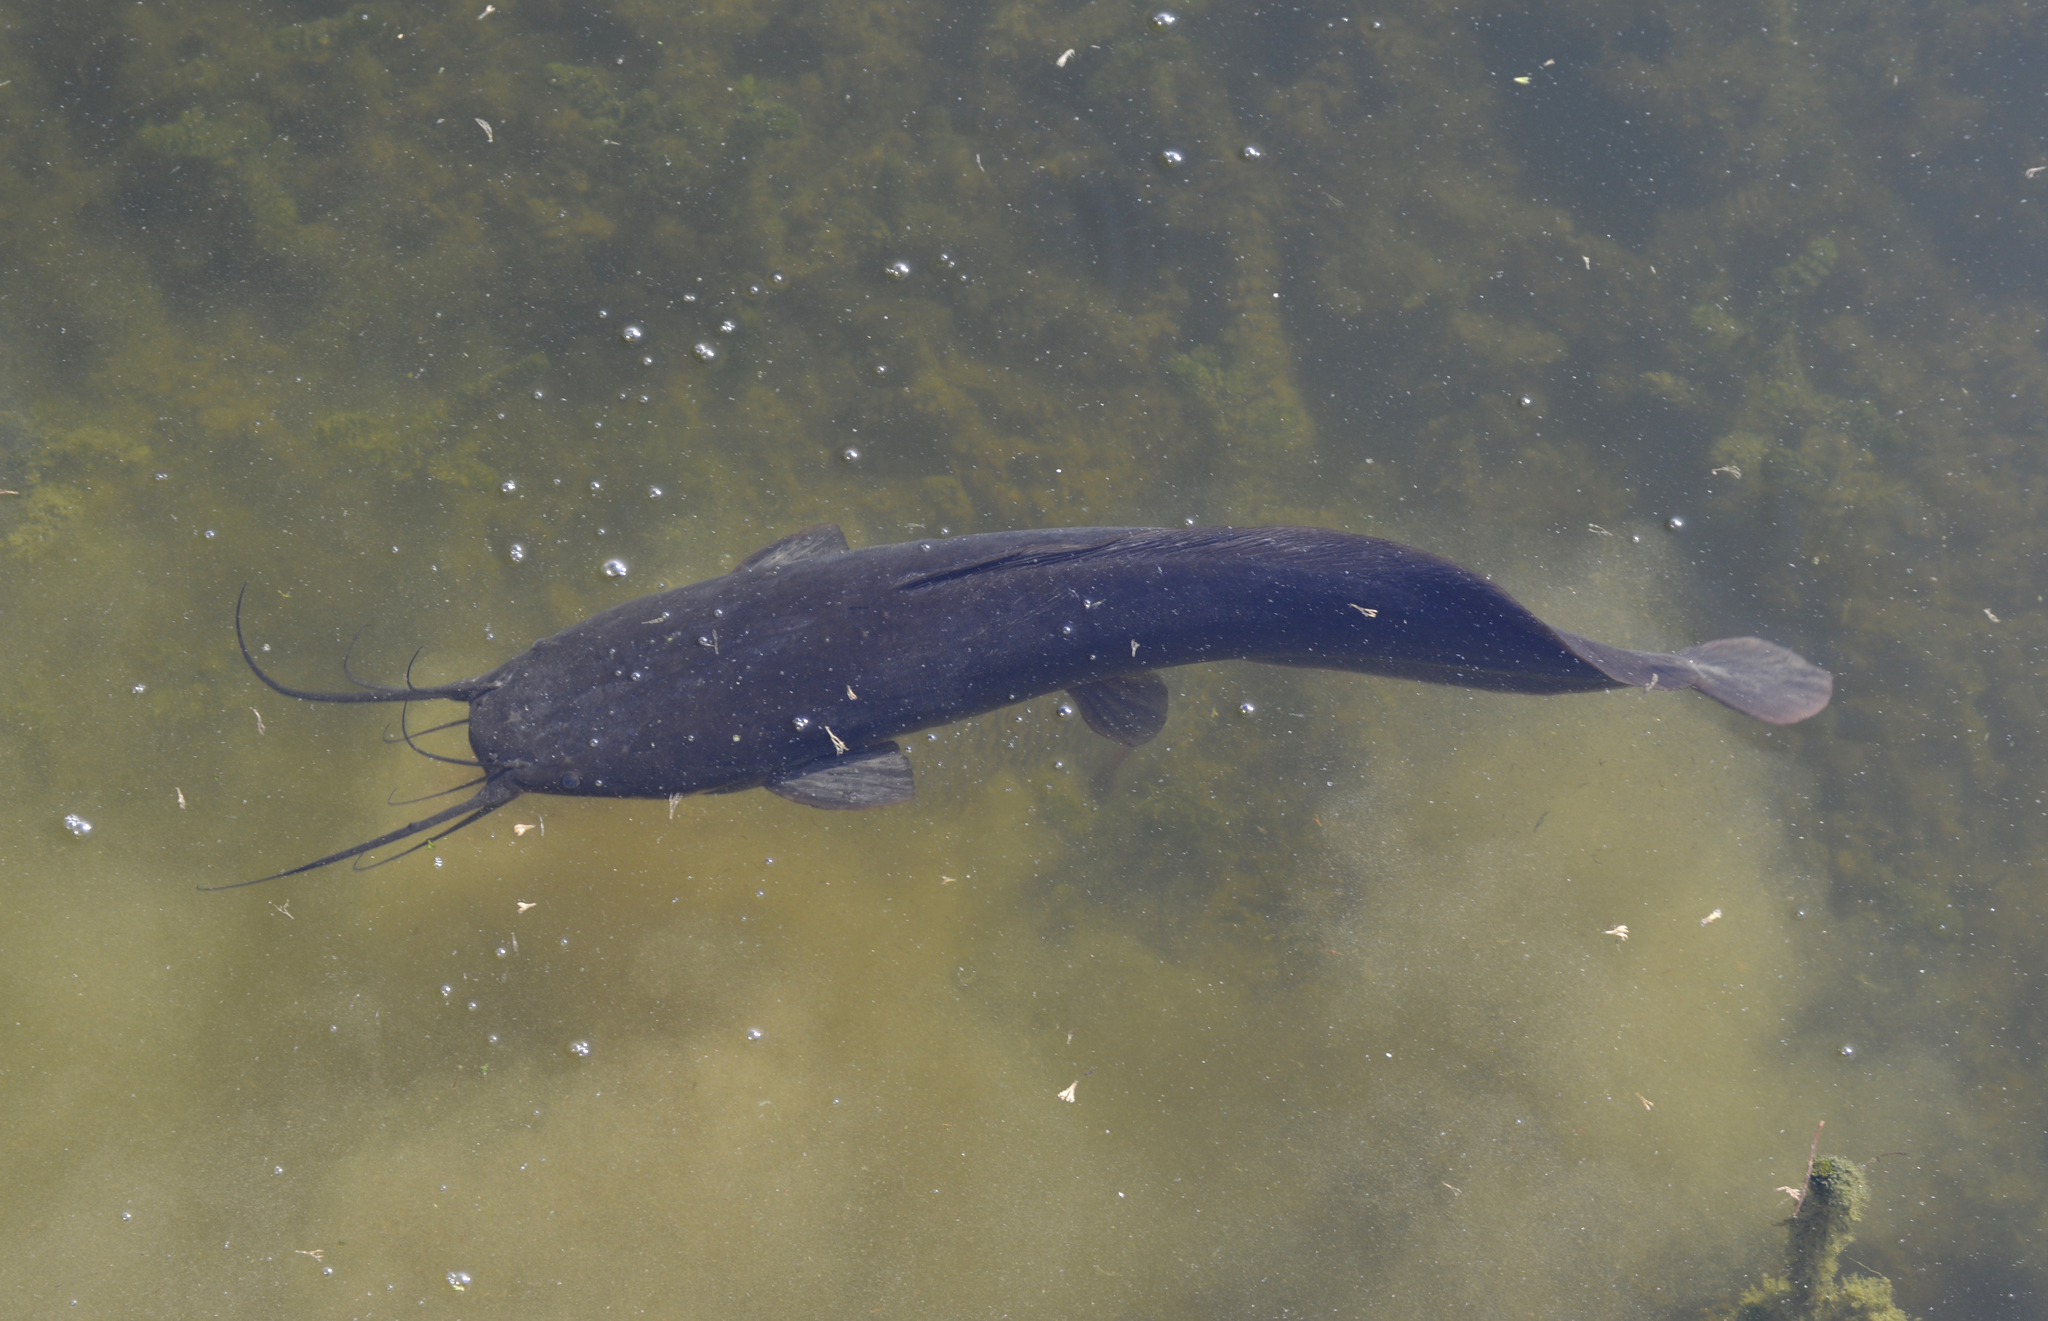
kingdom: Animalia
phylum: Chordata
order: Siluriformes
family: Clariidae
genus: Clarias
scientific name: Clarias gariepinus
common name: African catfish
